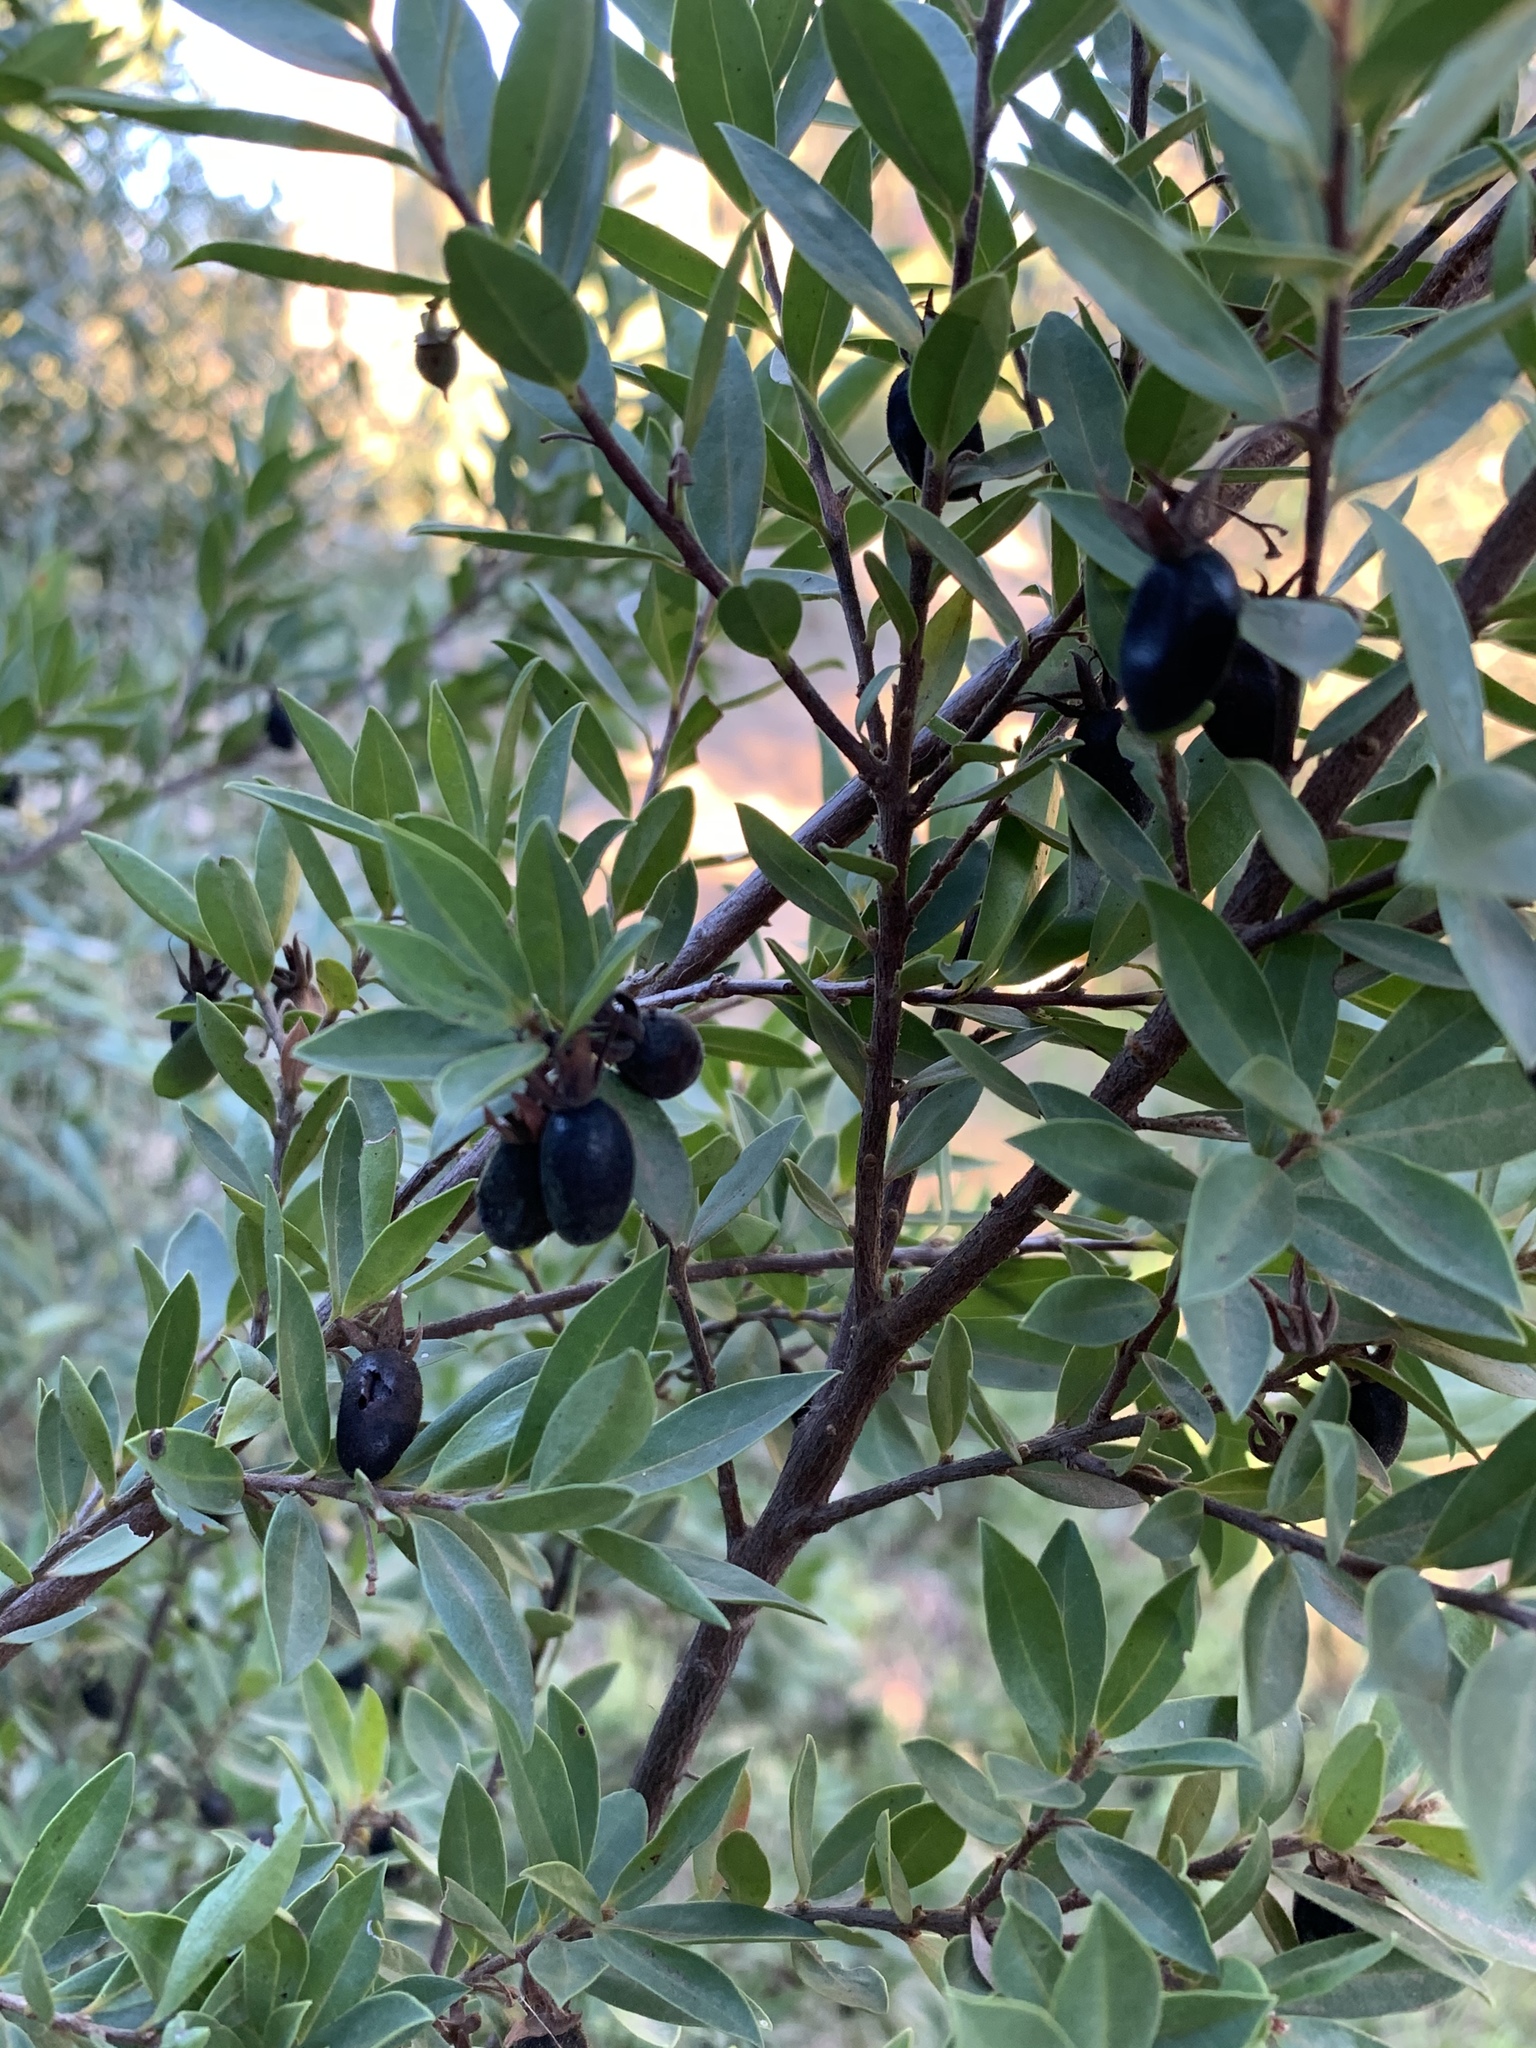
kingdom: Plantae
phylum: Tracheophyta
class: Magnoliopsida
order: Ericales
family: Ebenaceae
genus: Diospyros
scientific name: Diospyros glabra
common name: Fynbos star apple
